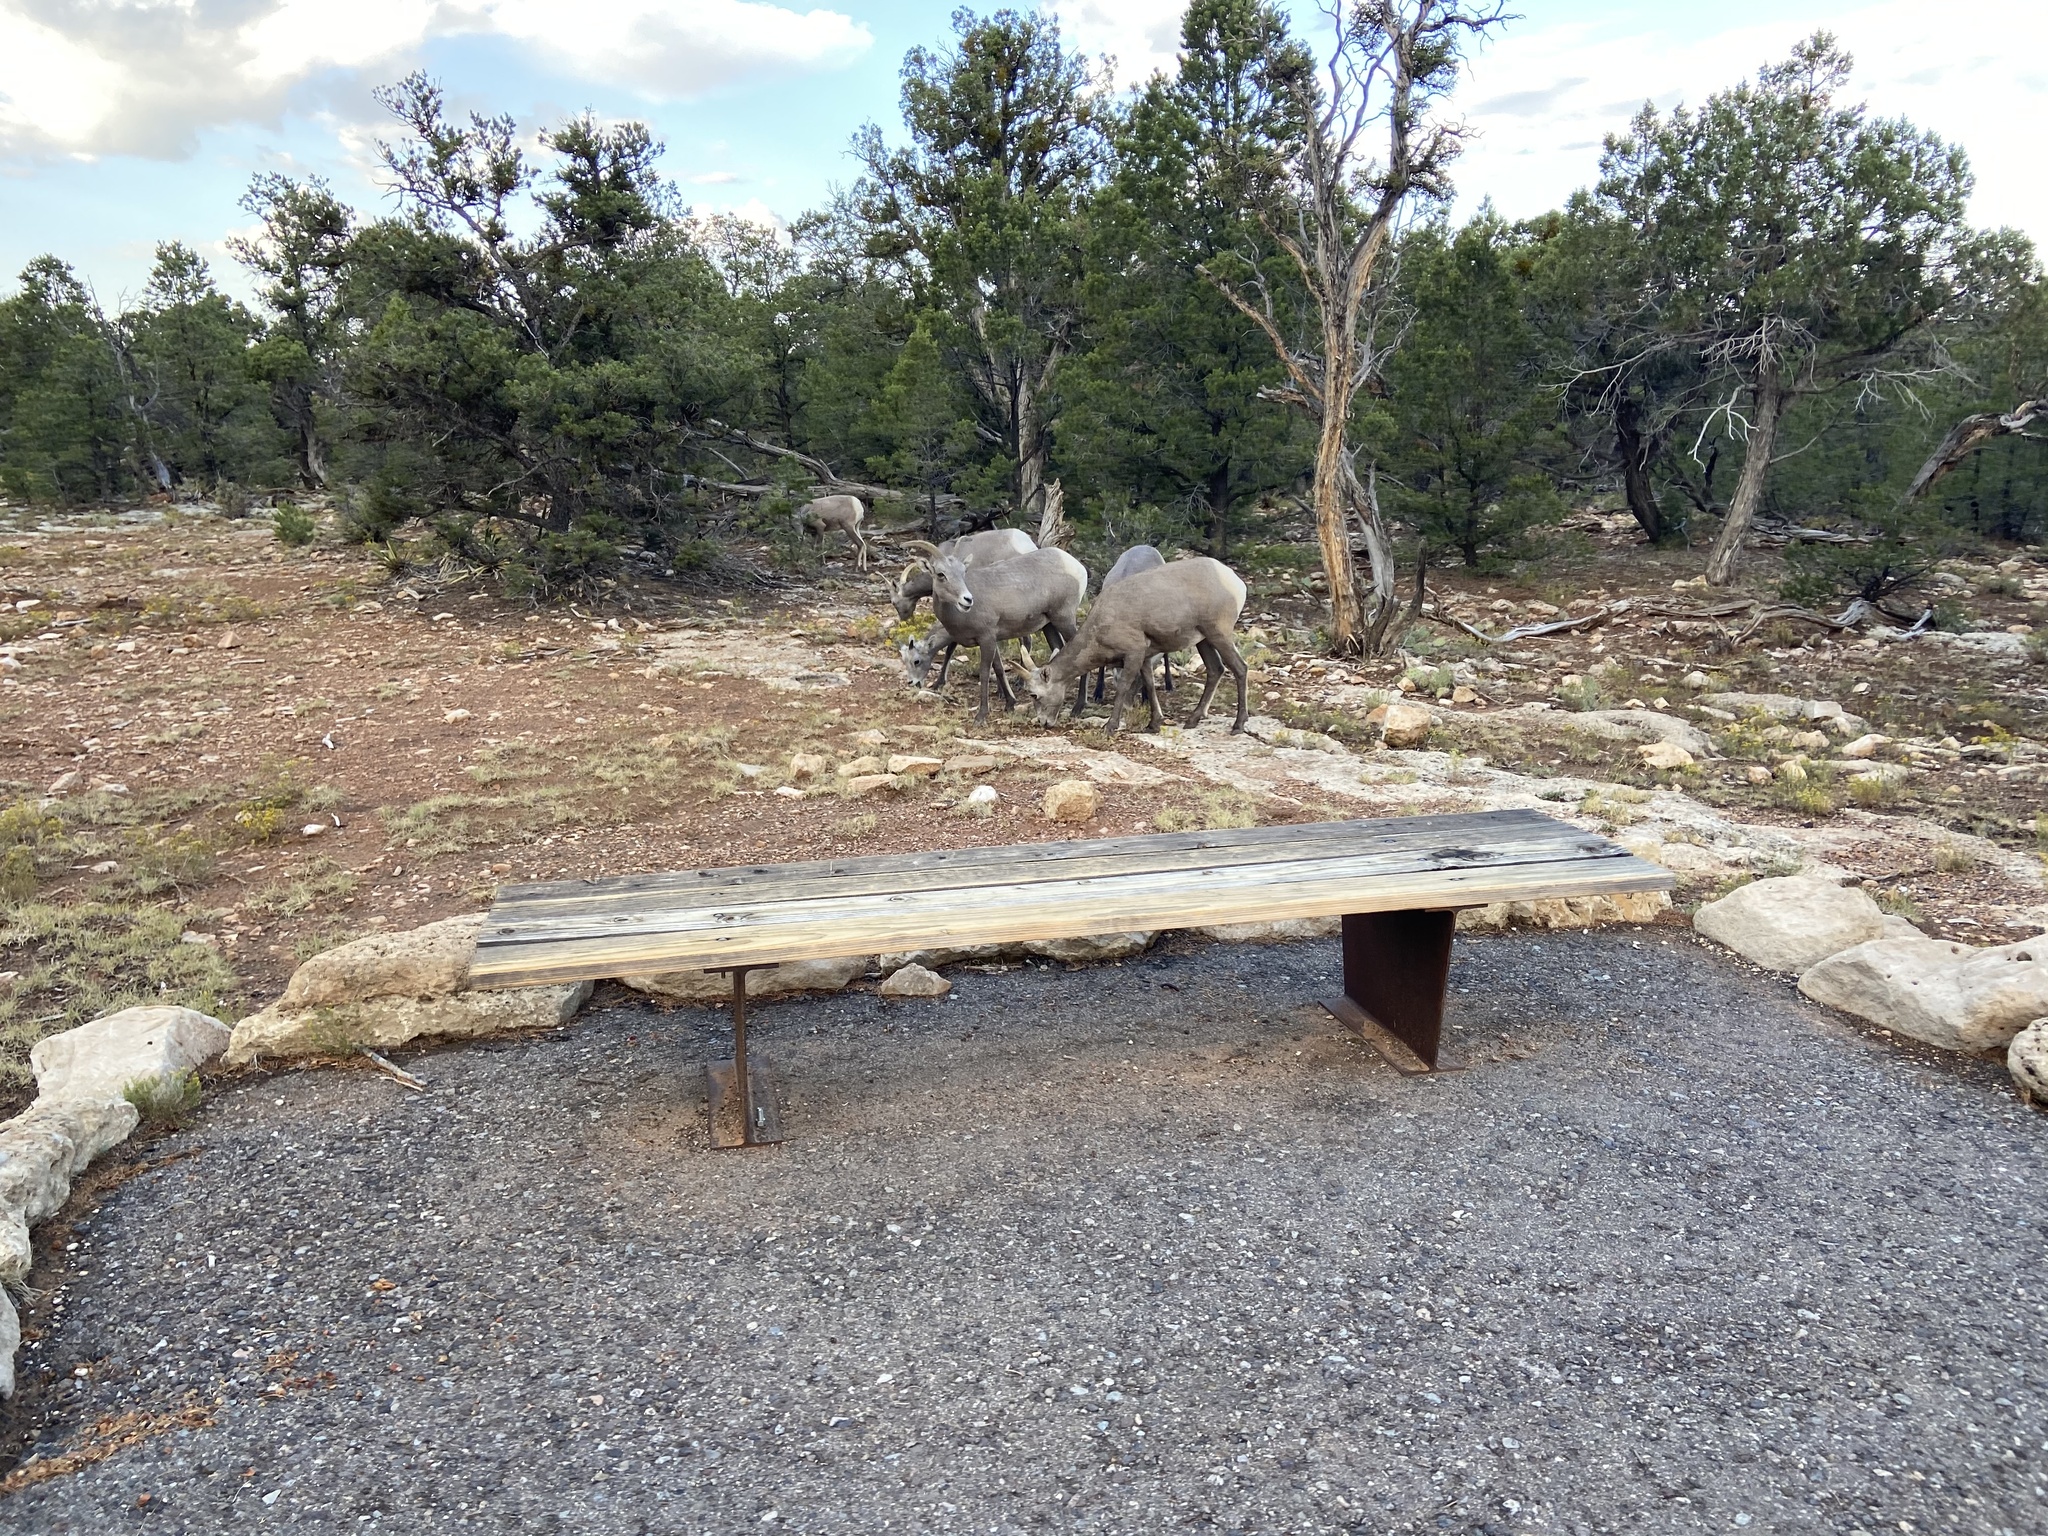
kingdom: Animalia
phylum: Chordata
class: Mammalia
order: Artiodactyla
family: Bovidae
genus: Ovis
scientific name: Ovis canadensis
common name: Bighorn sheep
